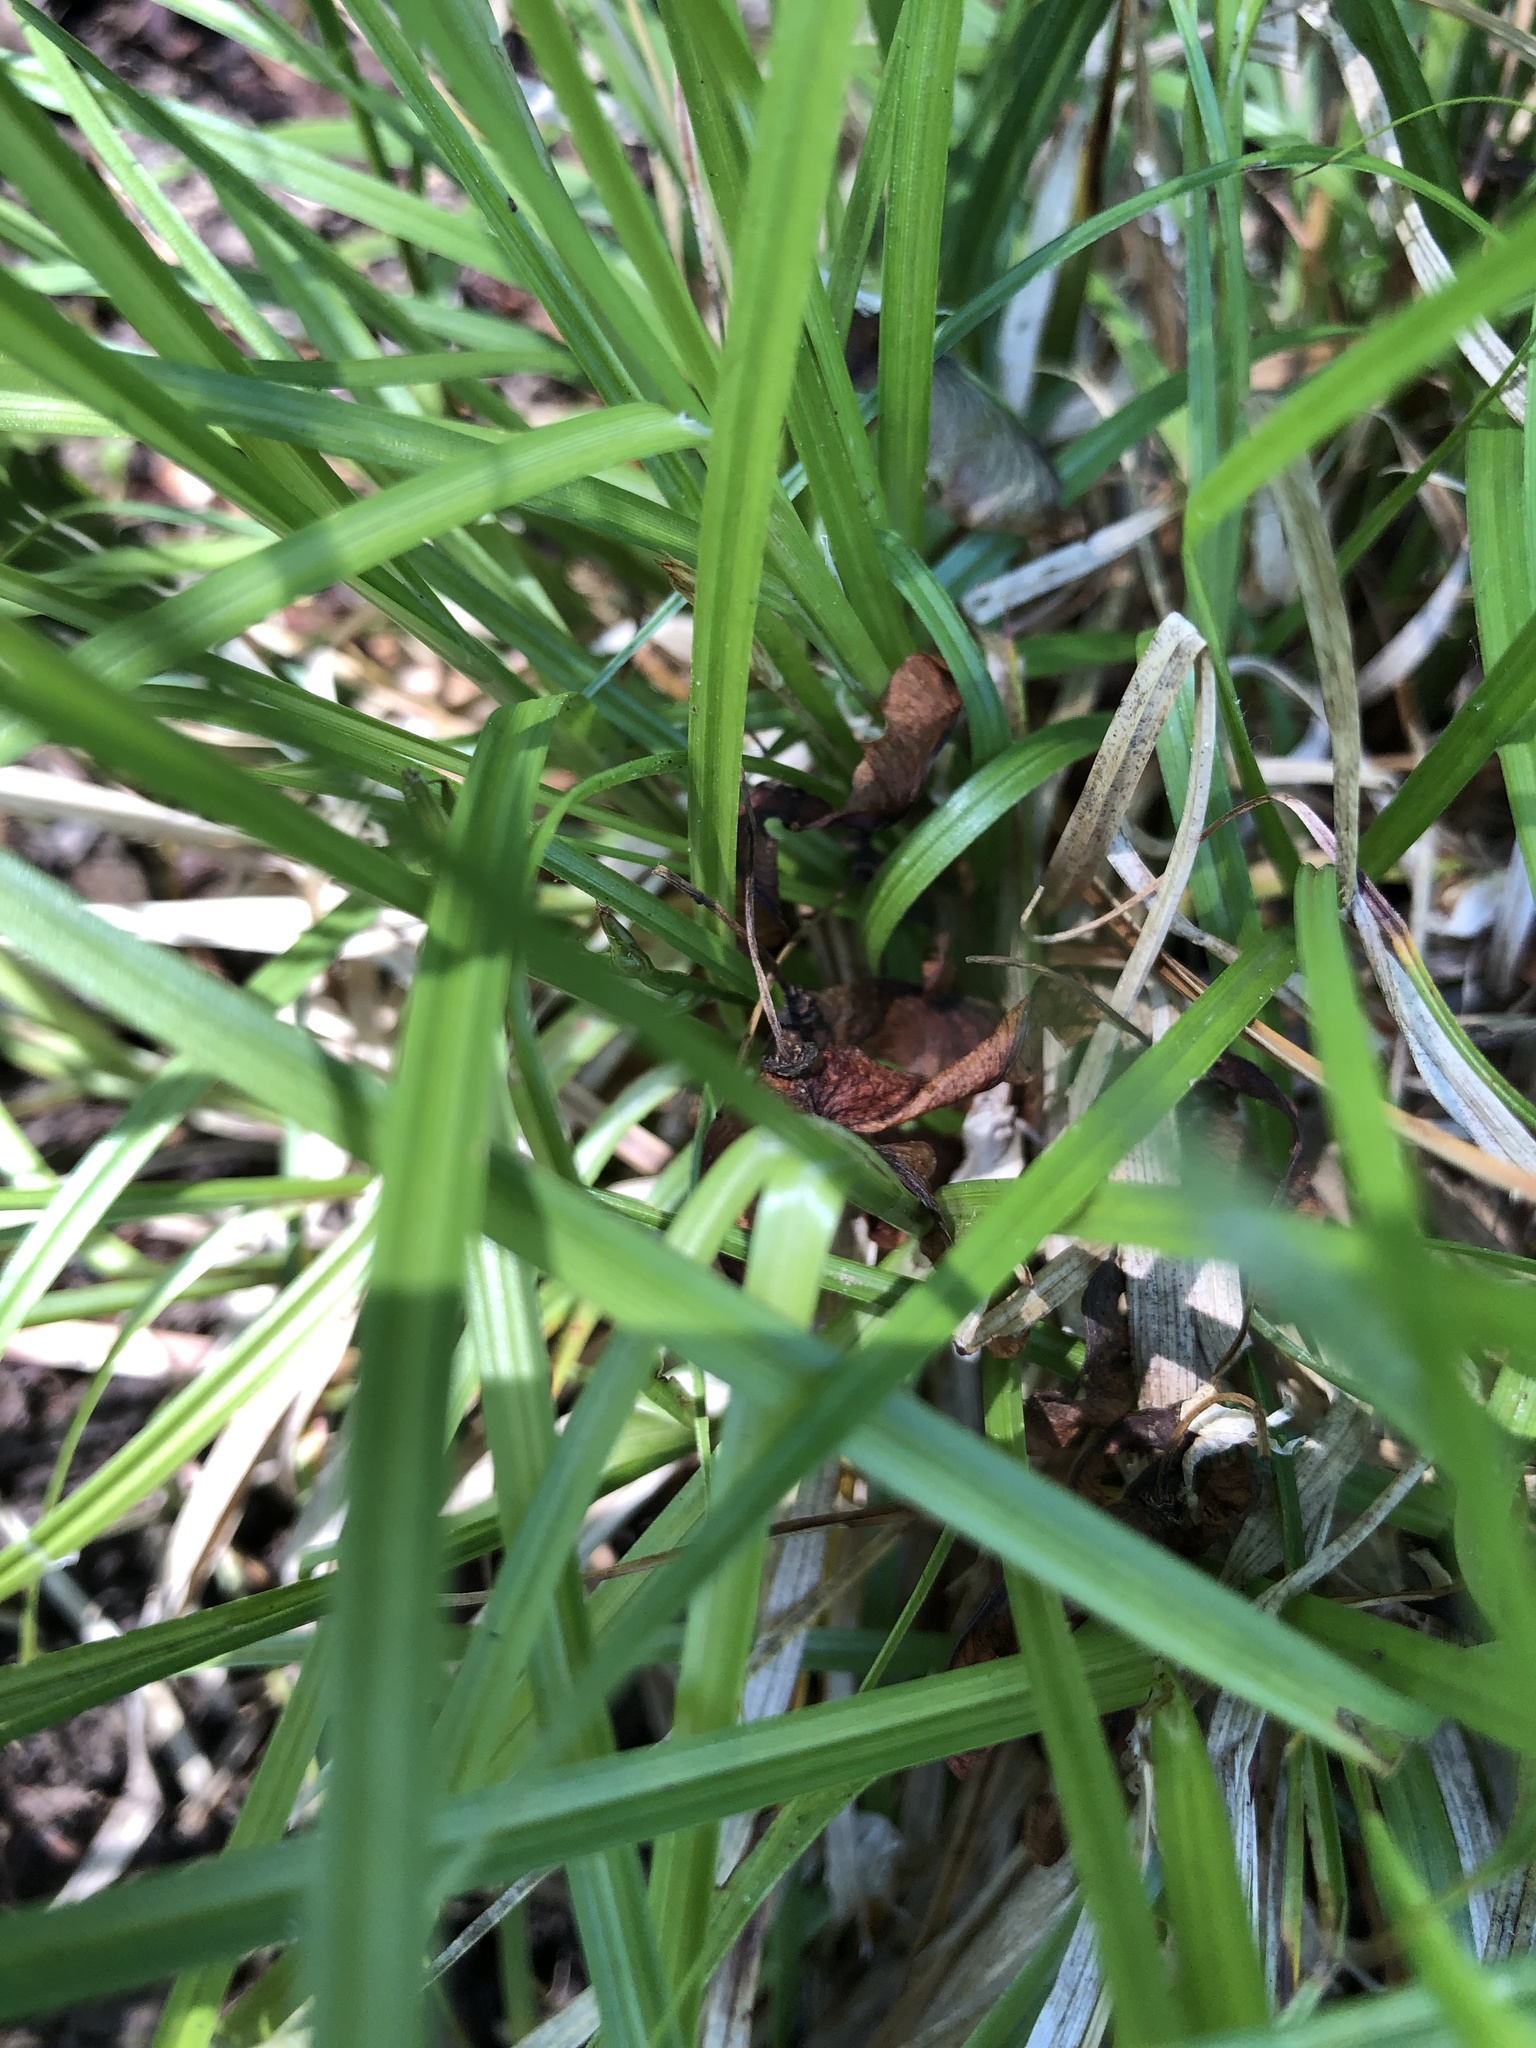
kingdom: Plantae
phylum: Tracheophyta
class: Liliopsida
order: Poales
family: Cyperaceae
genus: Carex
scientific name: Carex spicata
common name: Spiked sedge
